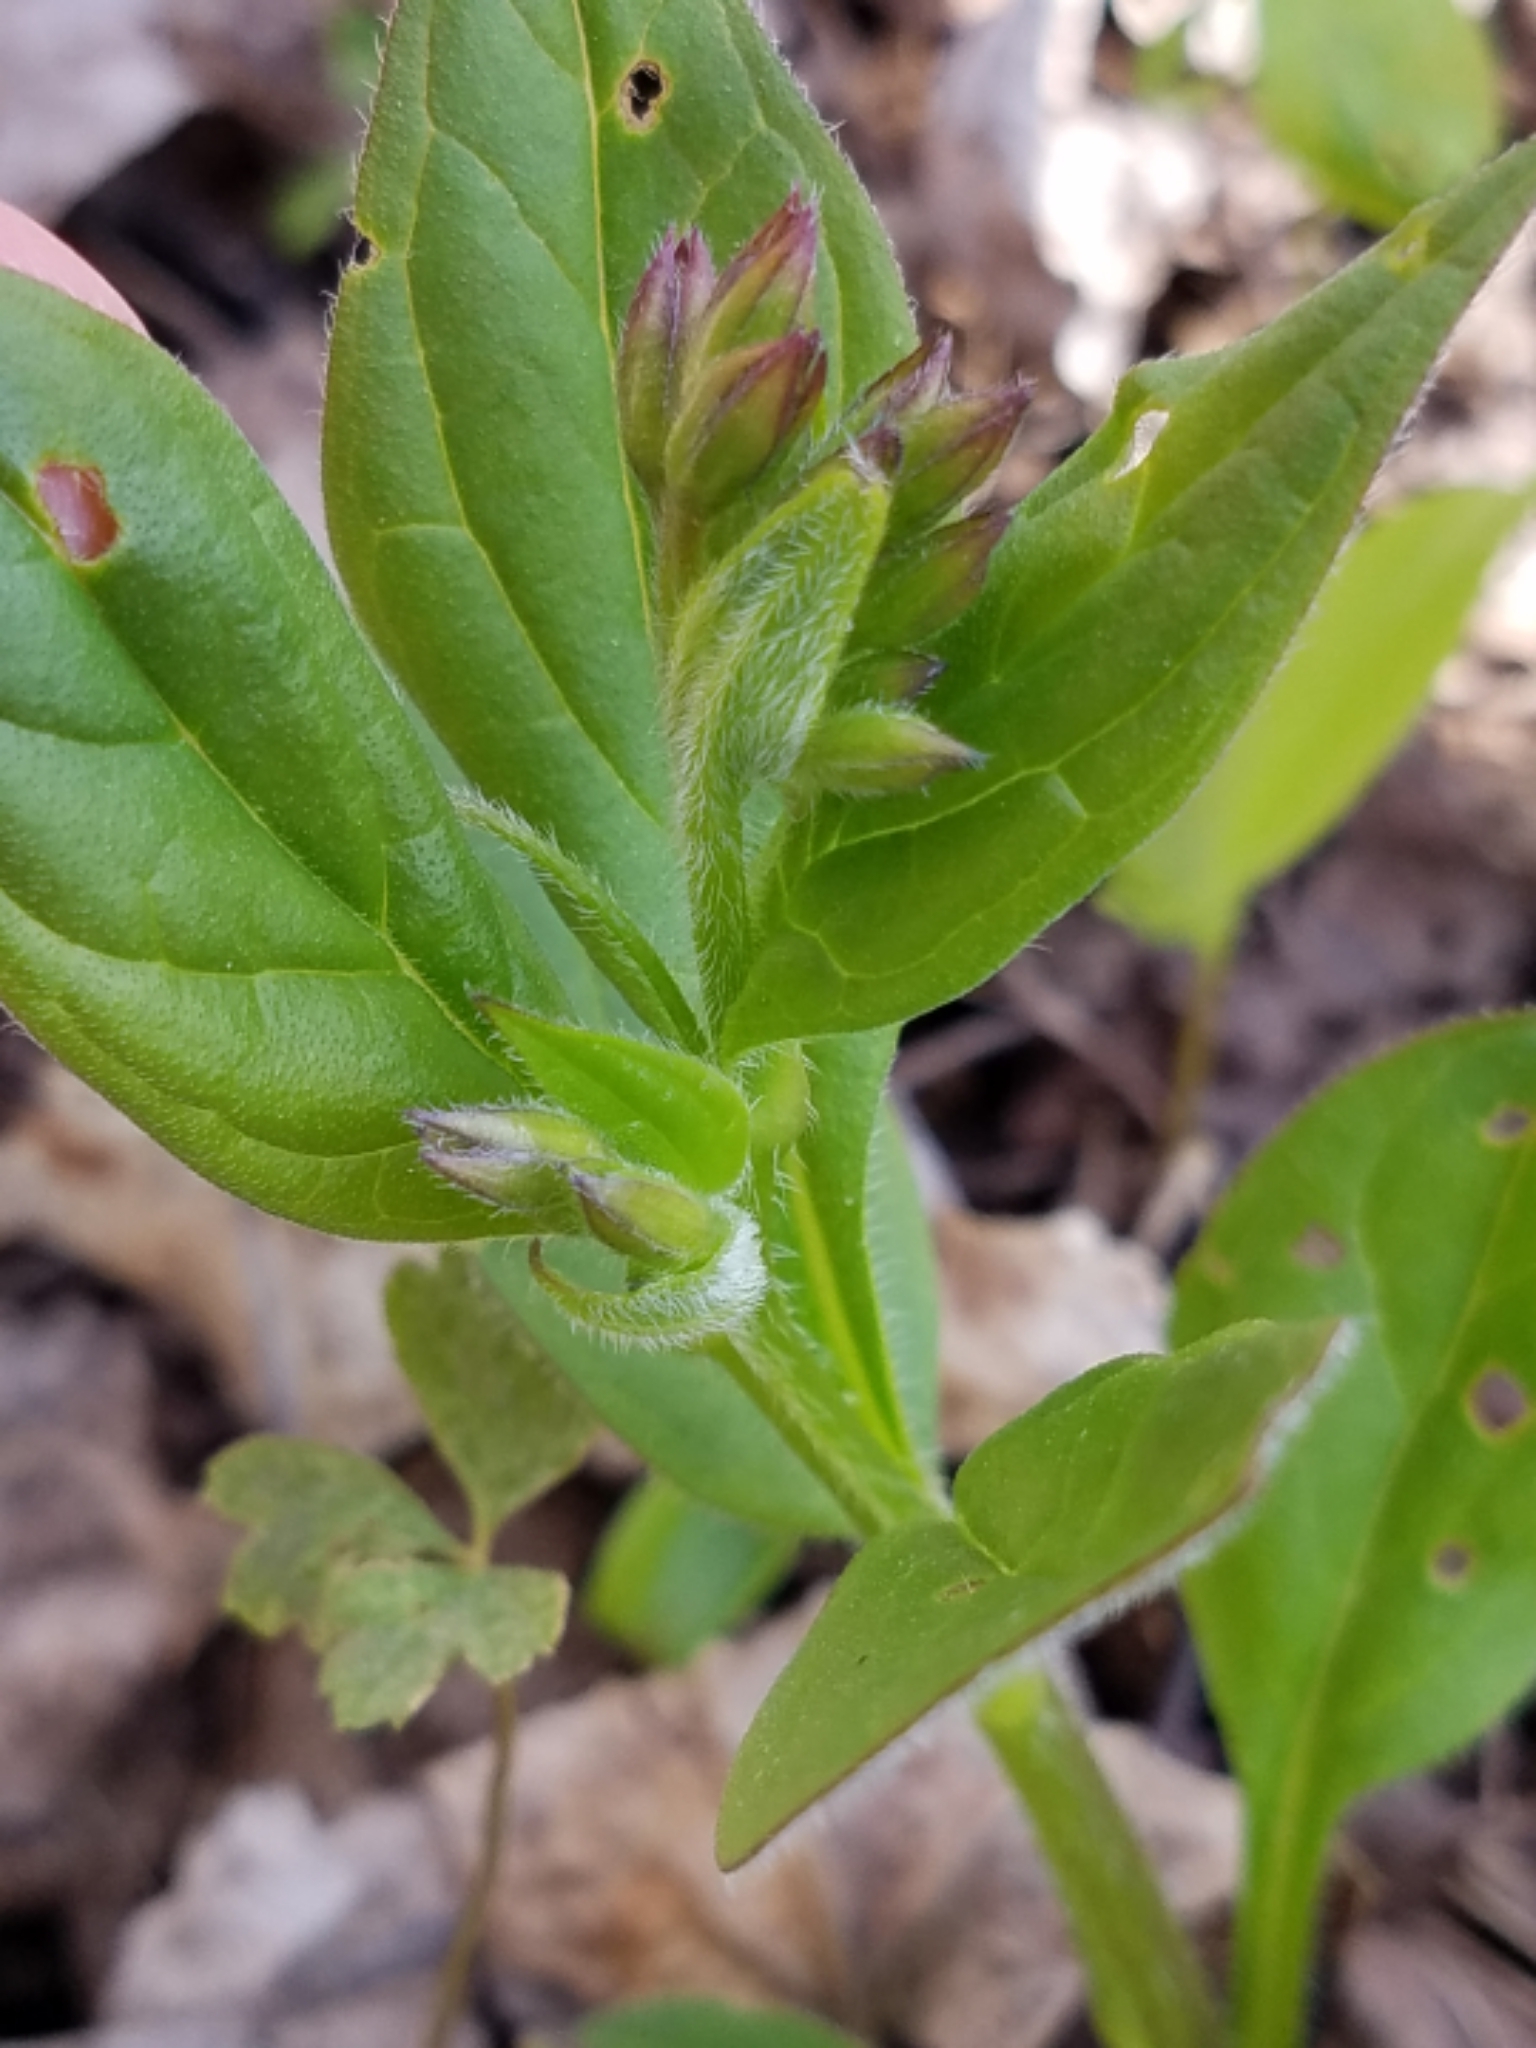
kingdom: Plantae
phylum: Tracheophyta
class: Magnoliopsida
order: Boraginales
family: Boraginaceae
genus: Mertensia
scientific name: Mertensia paniculata
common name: Panicled bluebells
